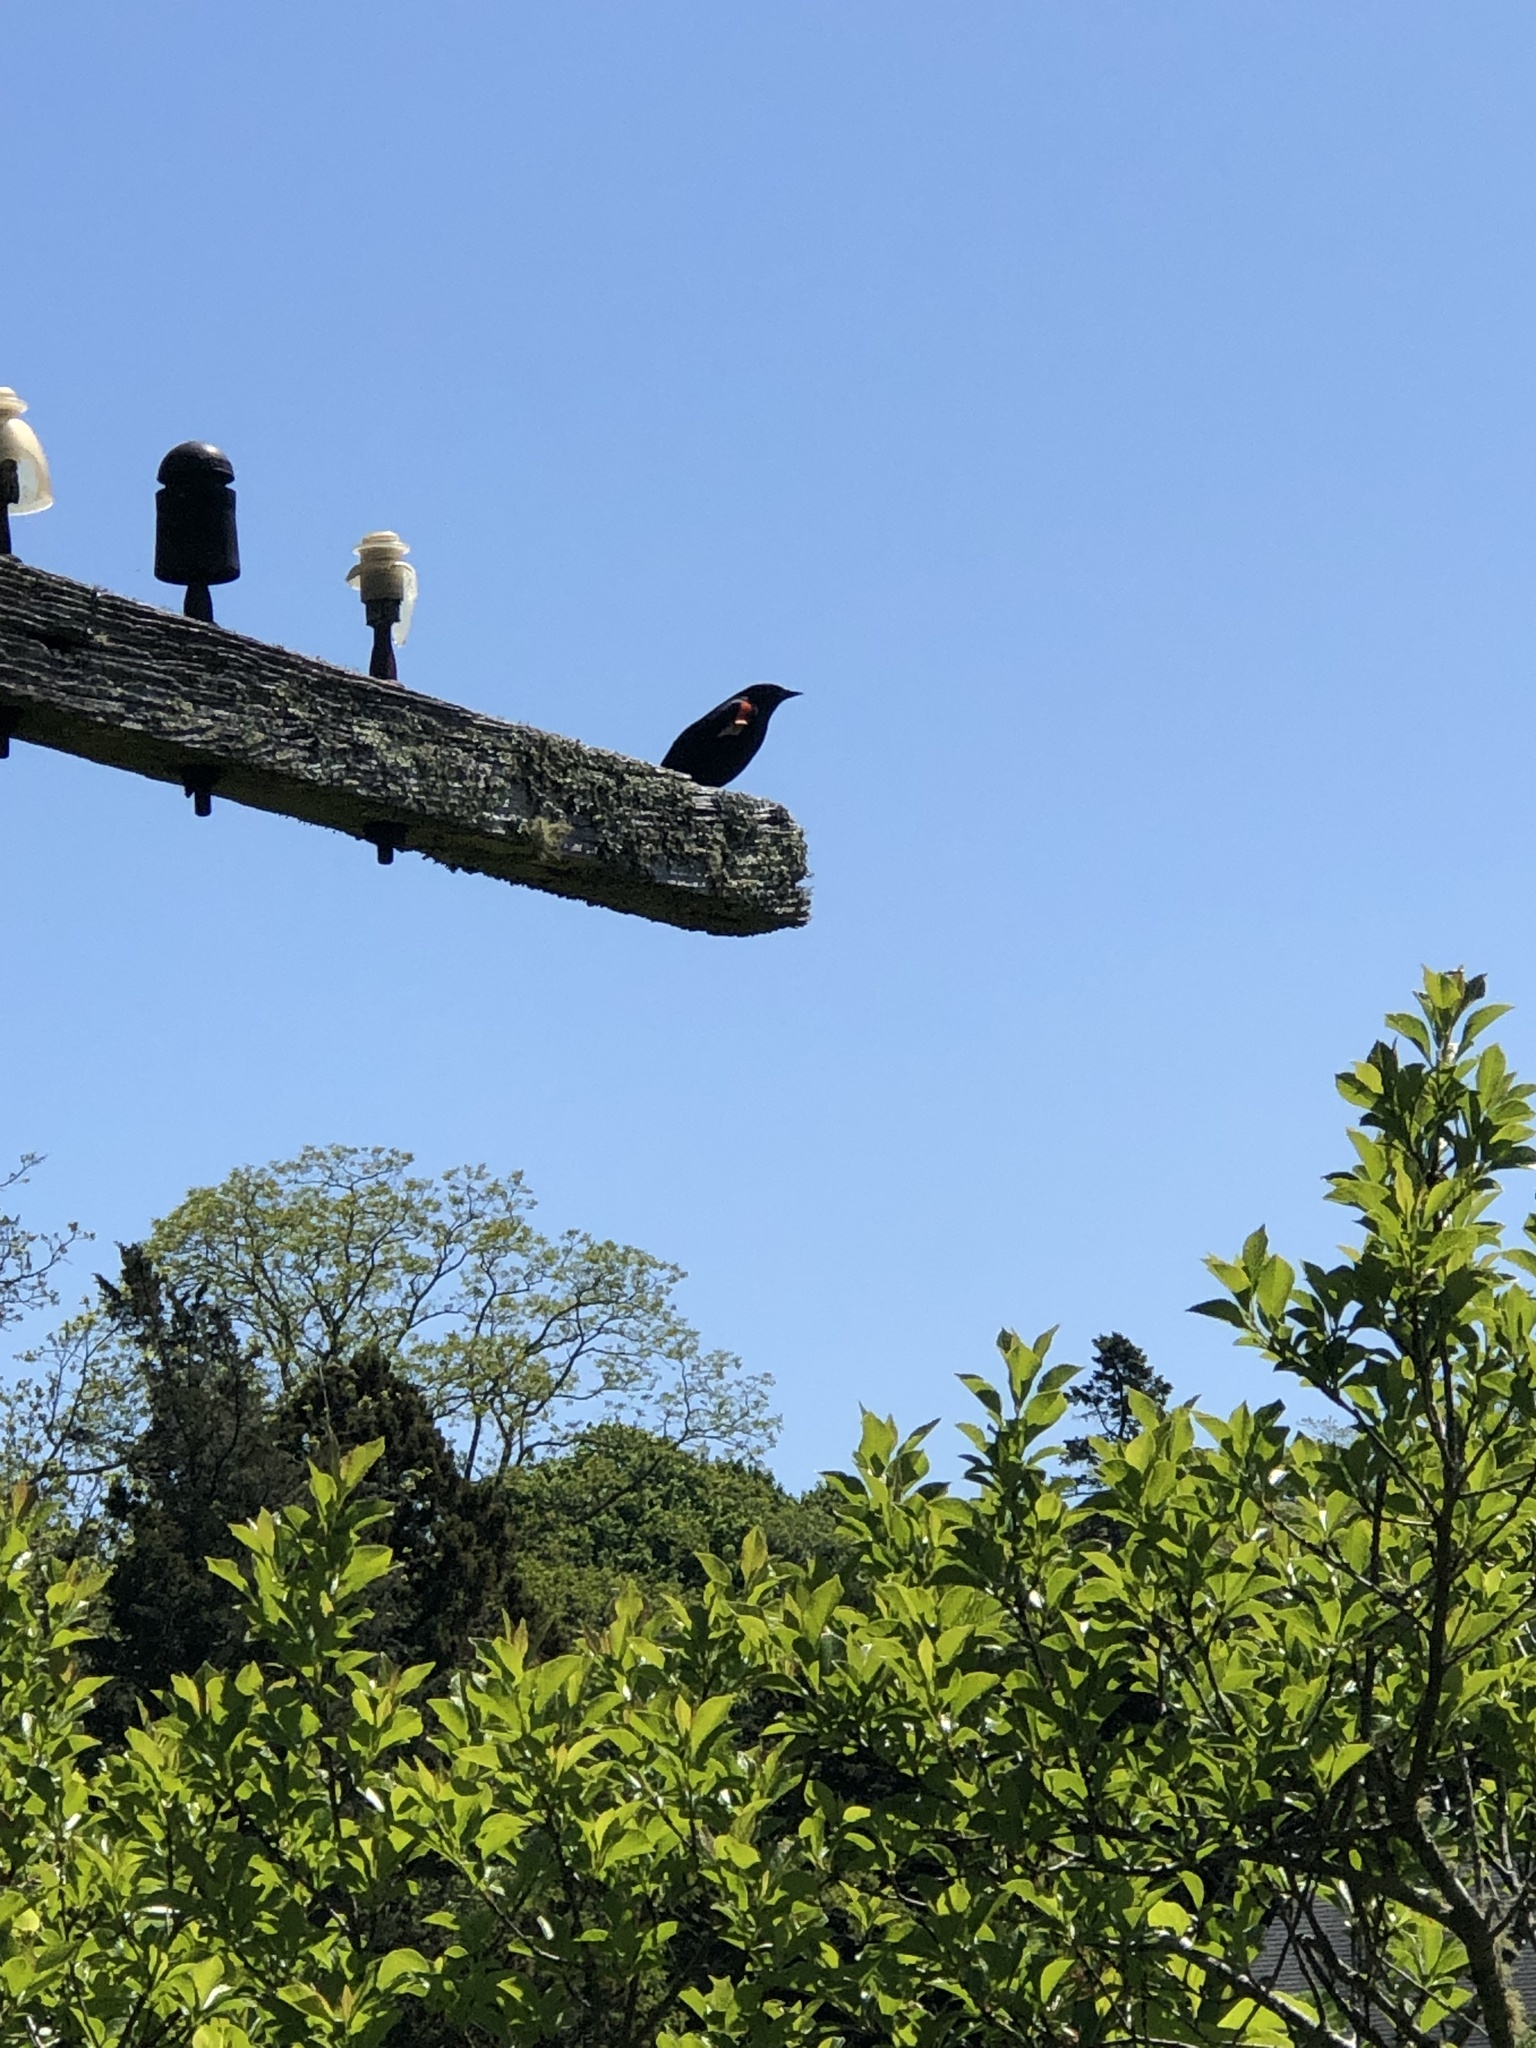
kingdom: Animalia
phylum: Chordata
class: Aves
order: Passeriformes
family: Icteridae
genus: Agelaius
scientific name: Agelaius phoeniceus
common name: Red-winged blackbird
